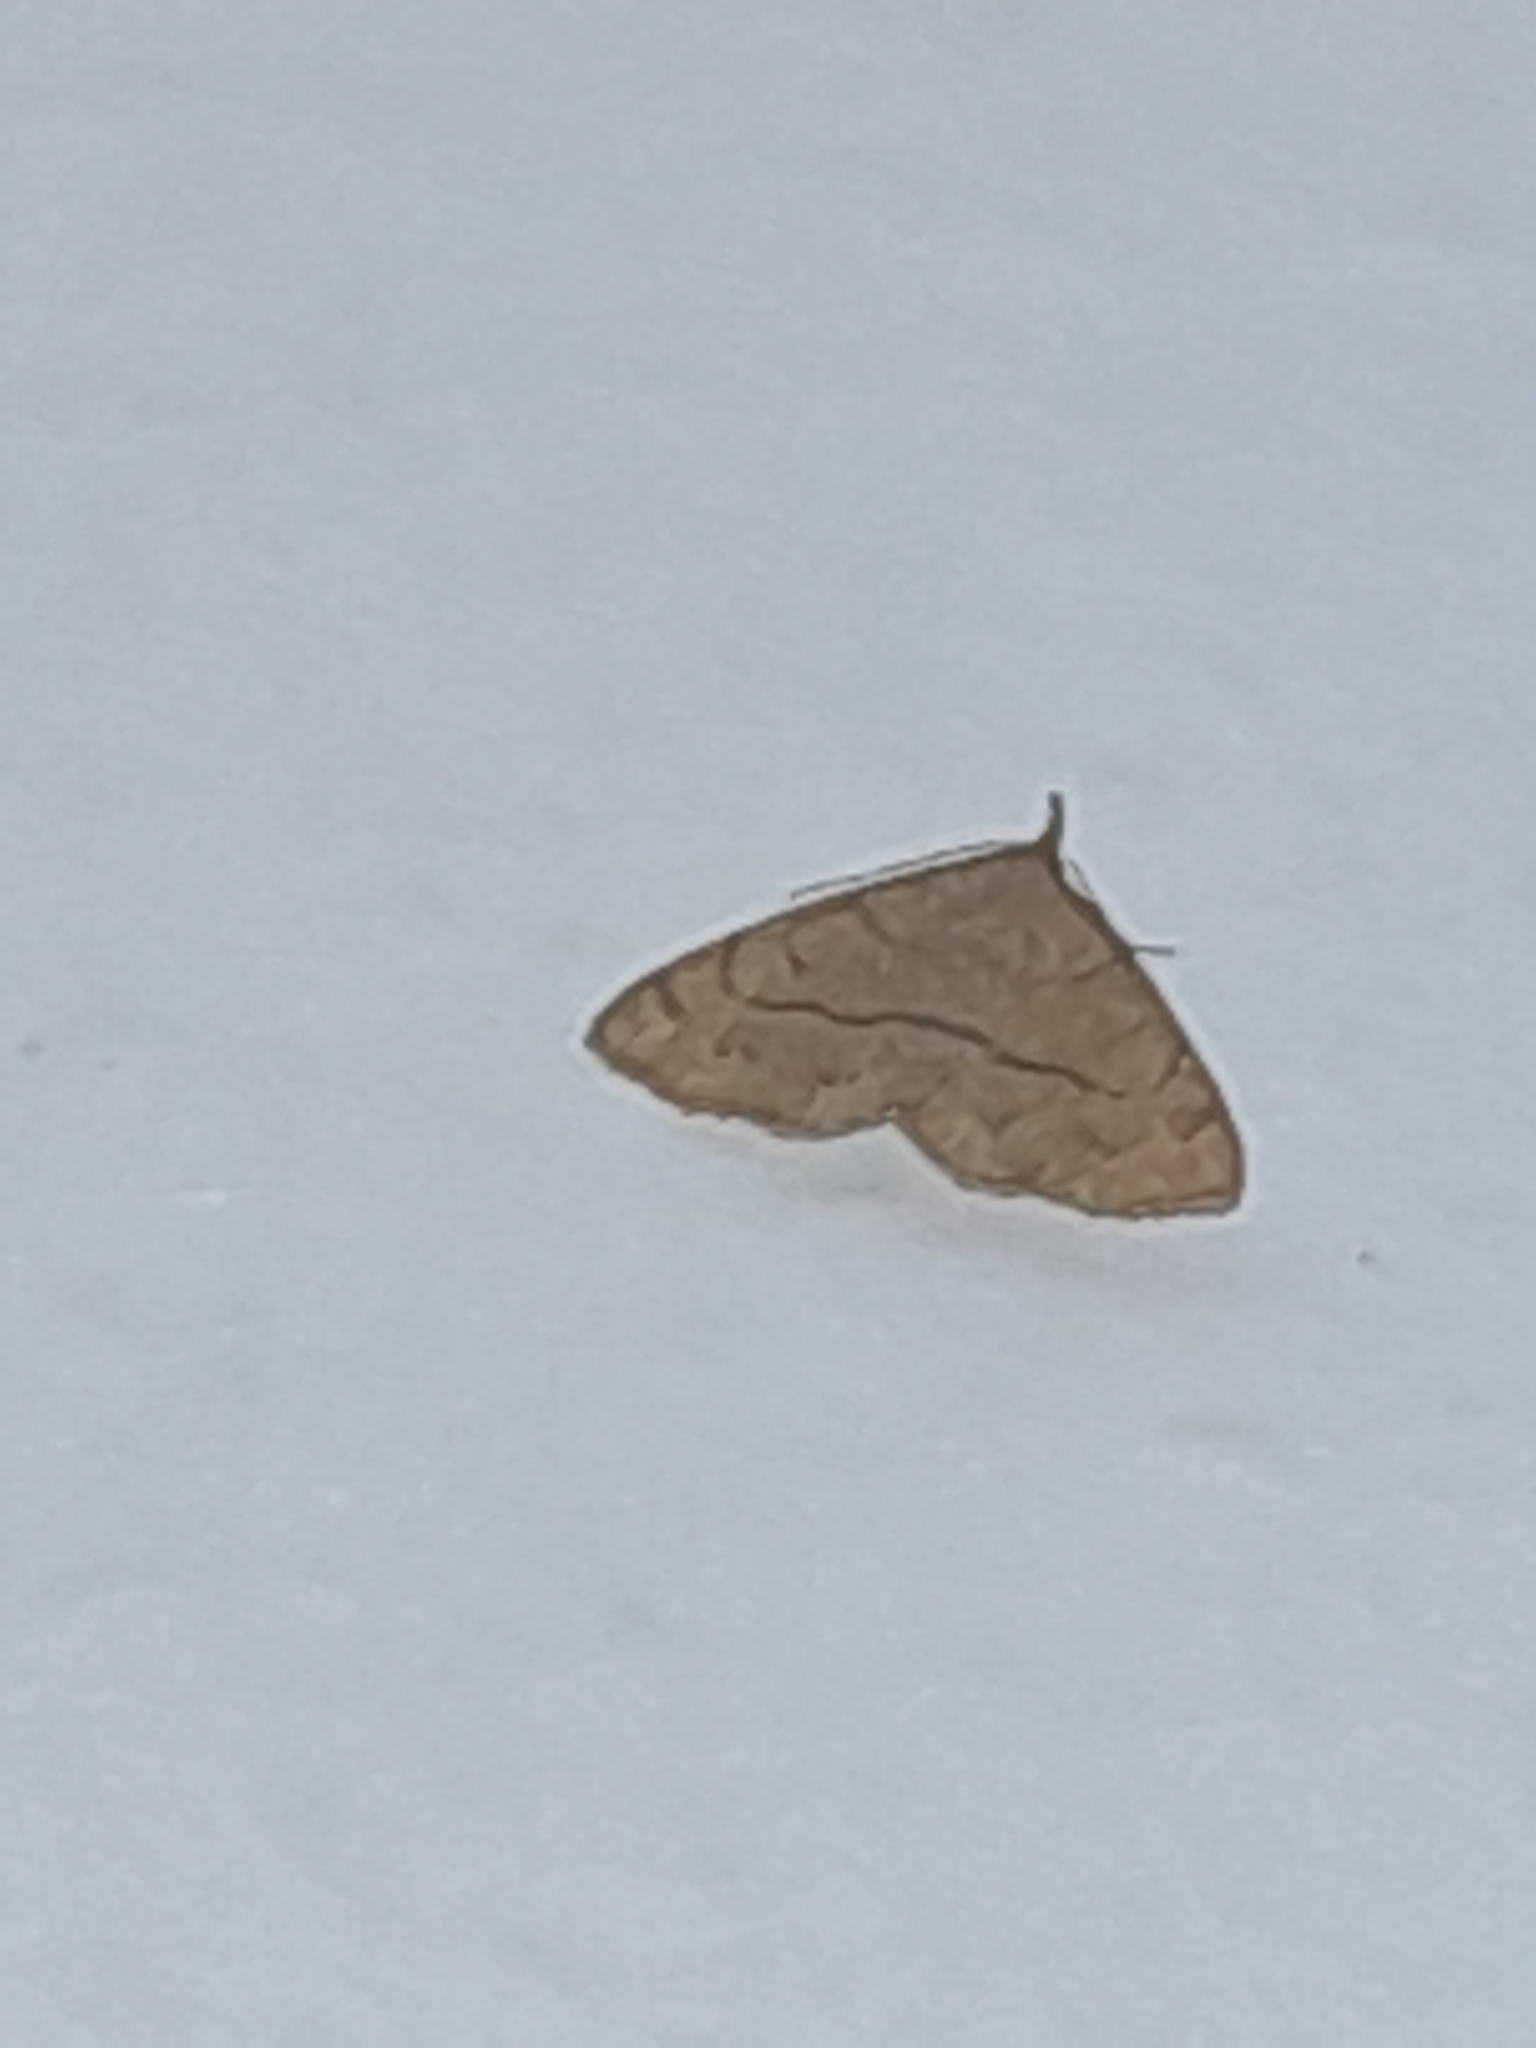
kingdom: Animalia
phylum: Arthropoda
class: Insecta
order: Lepidoptera
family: Erebidae
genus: Paracolax
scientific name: Paracolax tristalis
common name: Clay fan-foot
